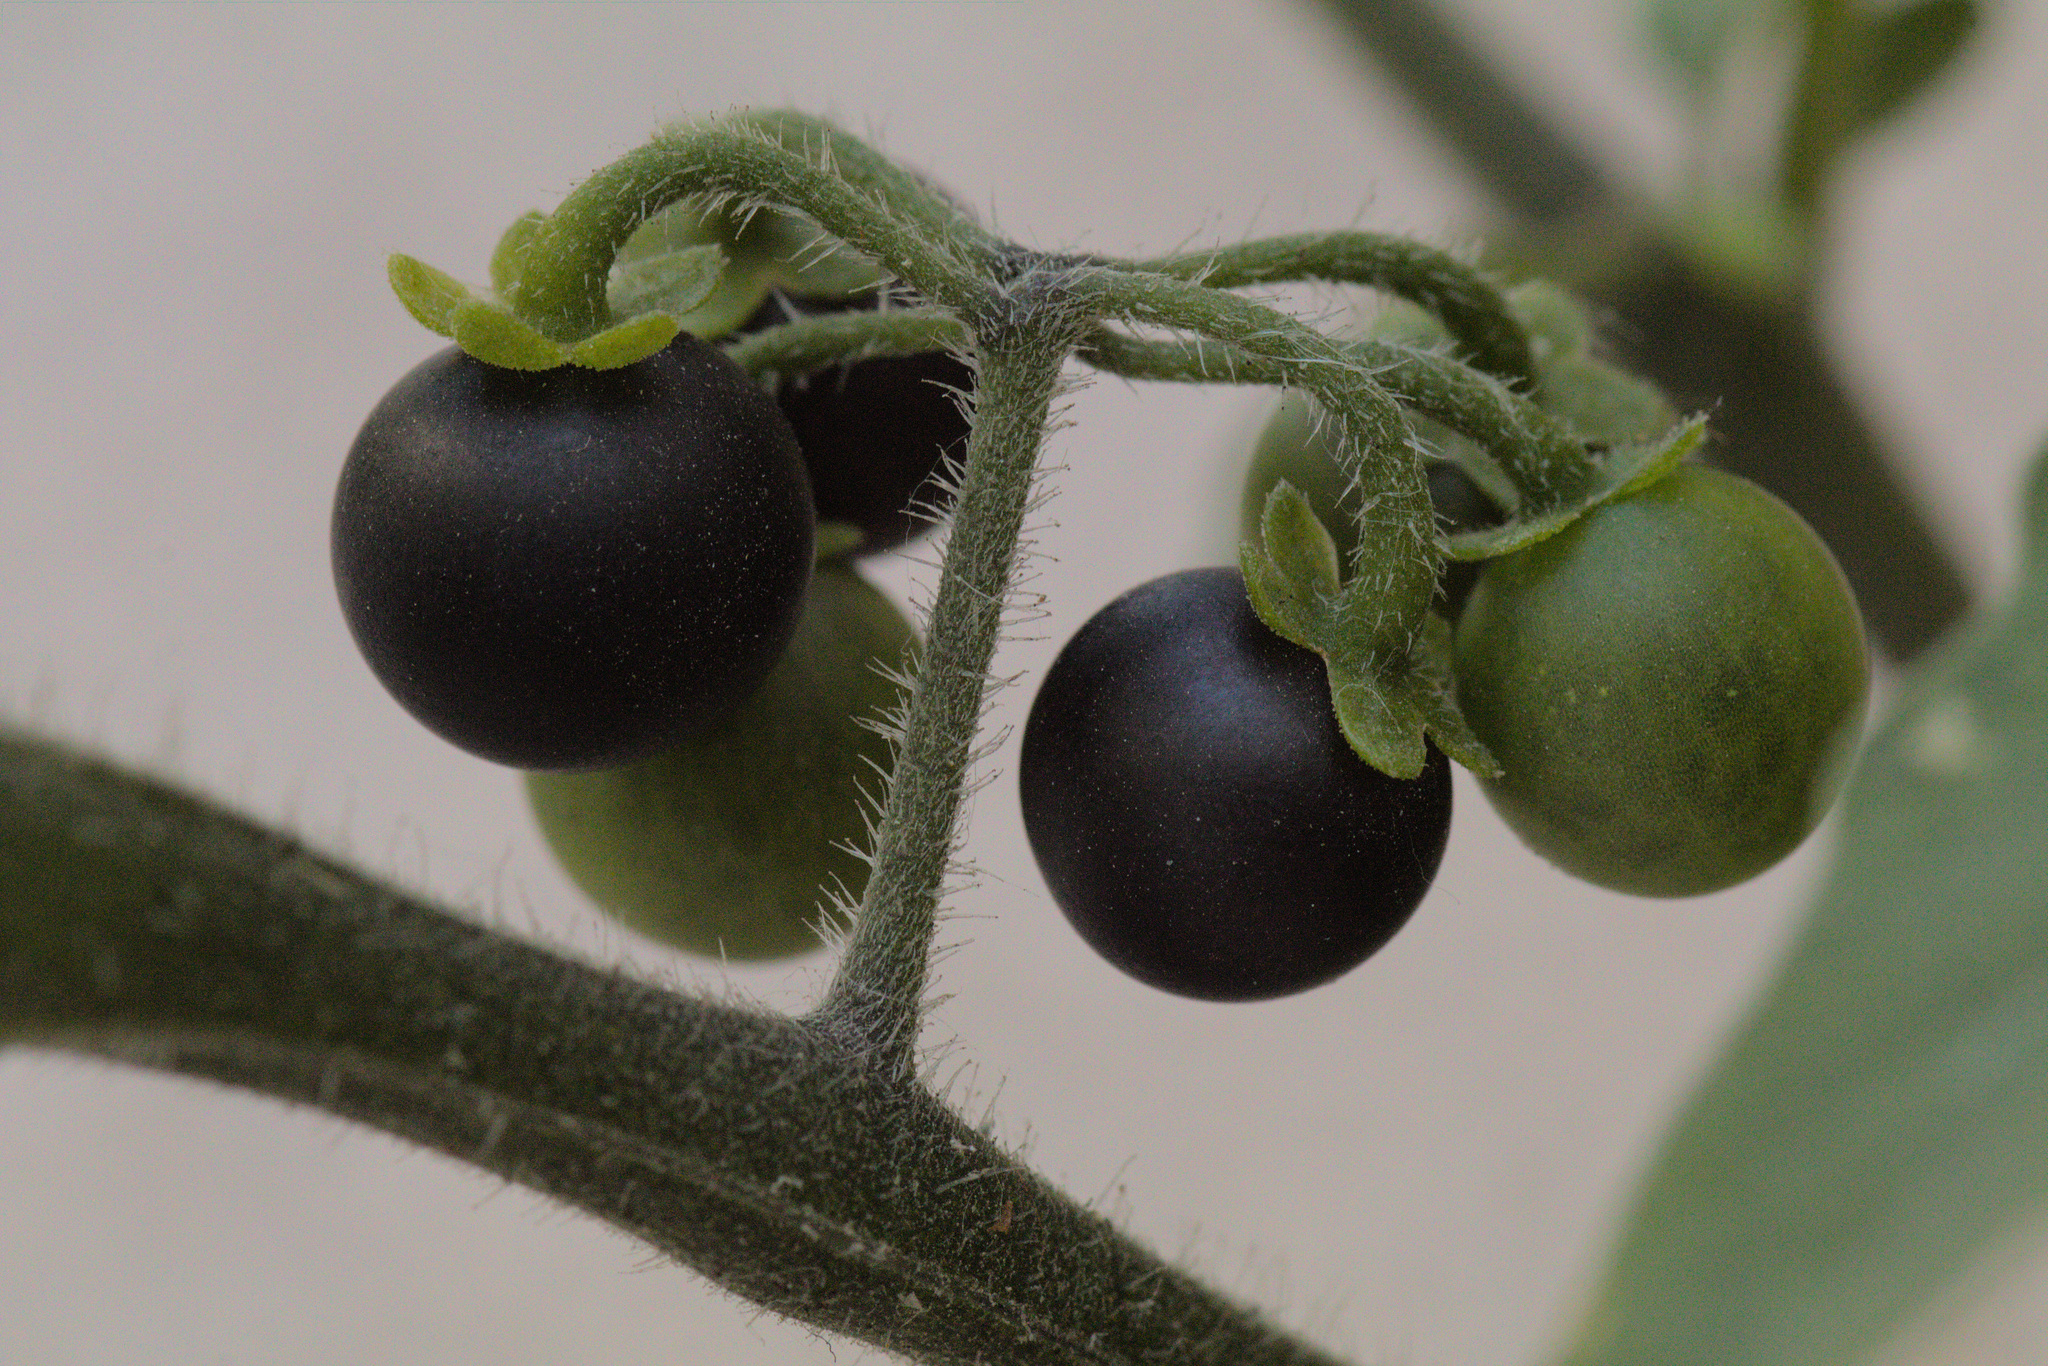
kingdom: Plantae
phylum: Tracheophyta
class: Magnoliopsida
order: Solanales
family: Solanaceae
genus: Solanum
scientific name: Solanum nigrum
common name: Black nightshade
